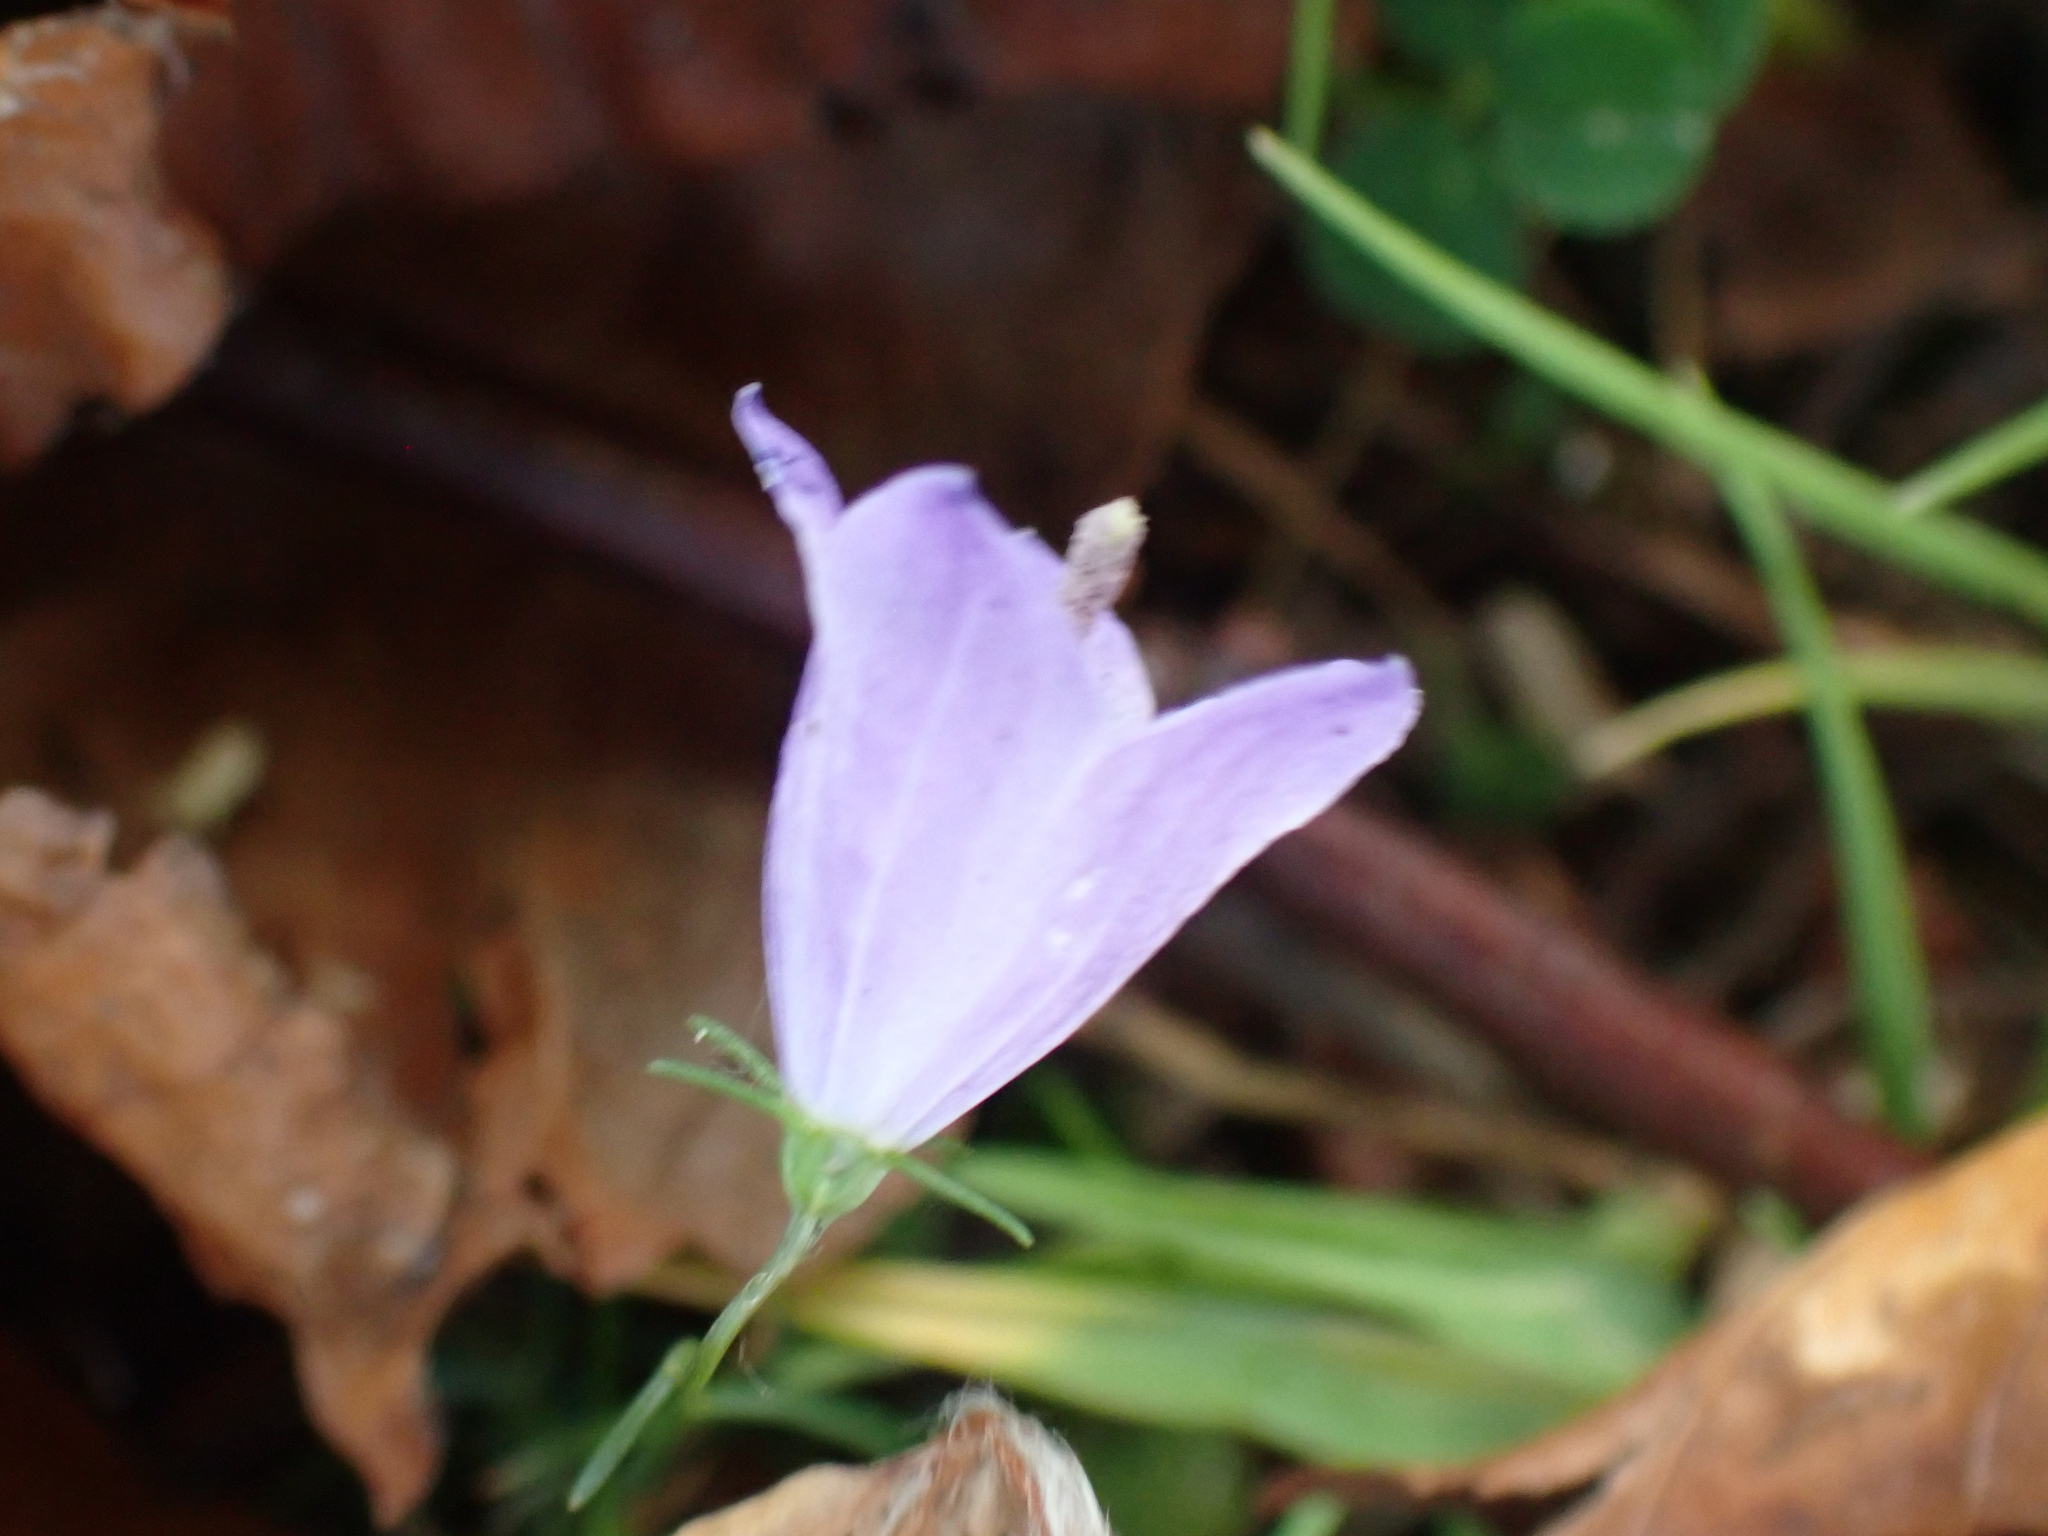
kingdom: Plantae
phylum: Tracheophyta
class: Magnoliopsida
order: Asterales
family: Campanulaceae
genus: Campanula
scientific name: Campanula rotundifolia
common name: Harebell
